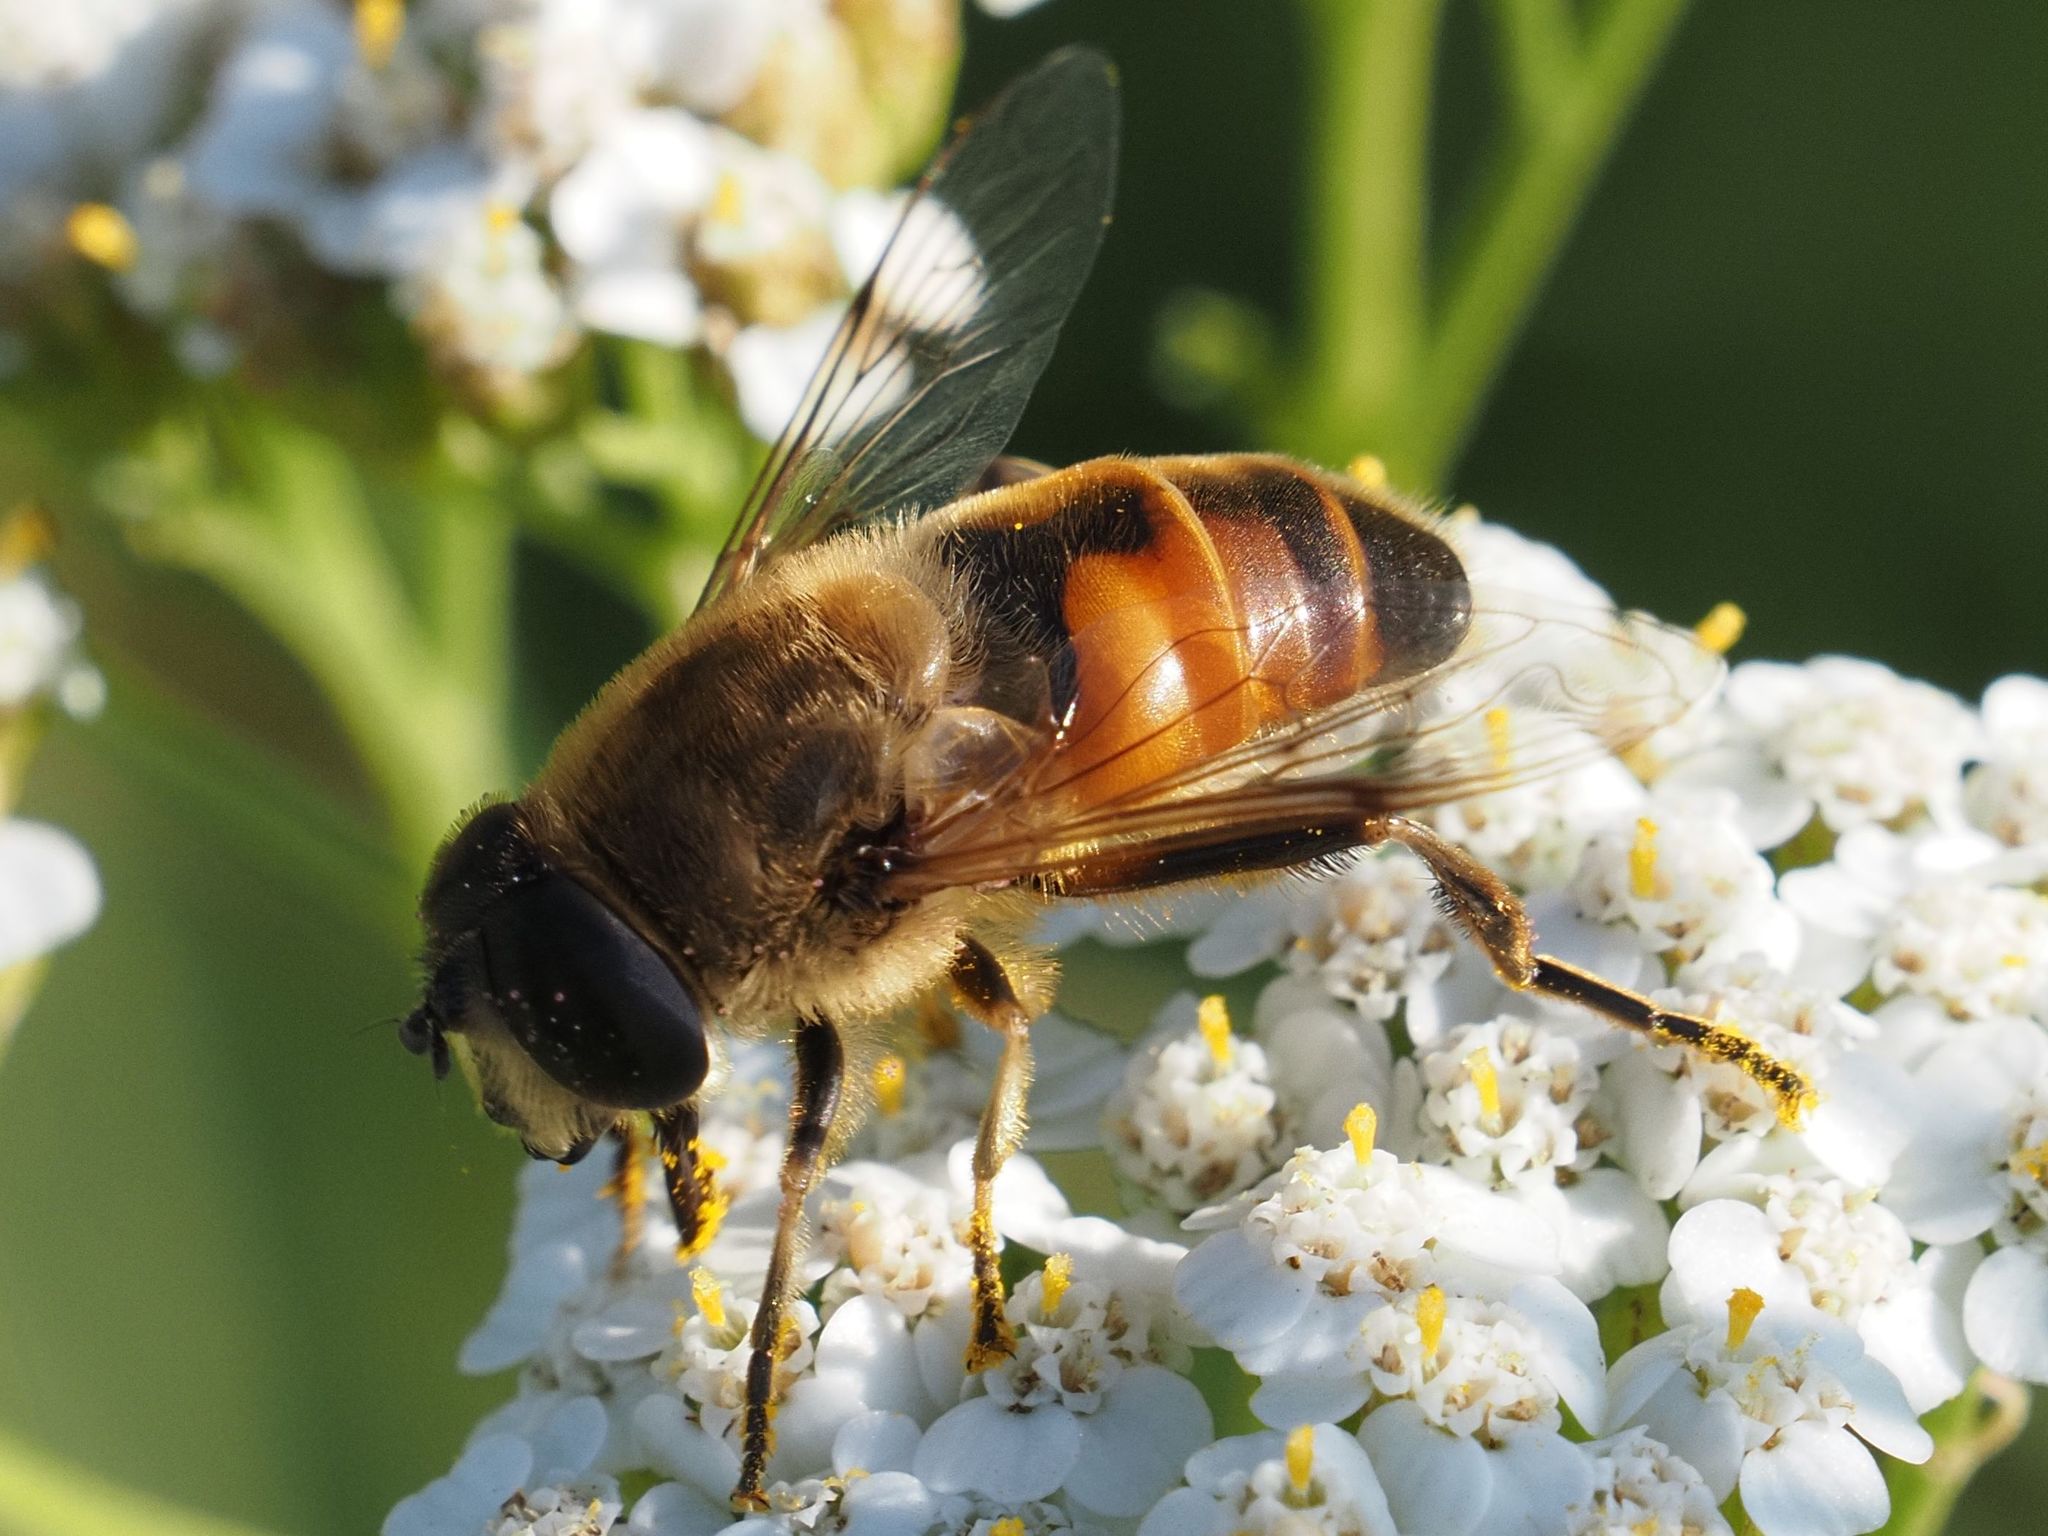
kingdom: Animalia
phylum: Arthropoda
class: Insecta
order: Diptera
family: Syrphidae
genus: Eristalis
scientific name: Eristalis tenax
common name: Drone fly
